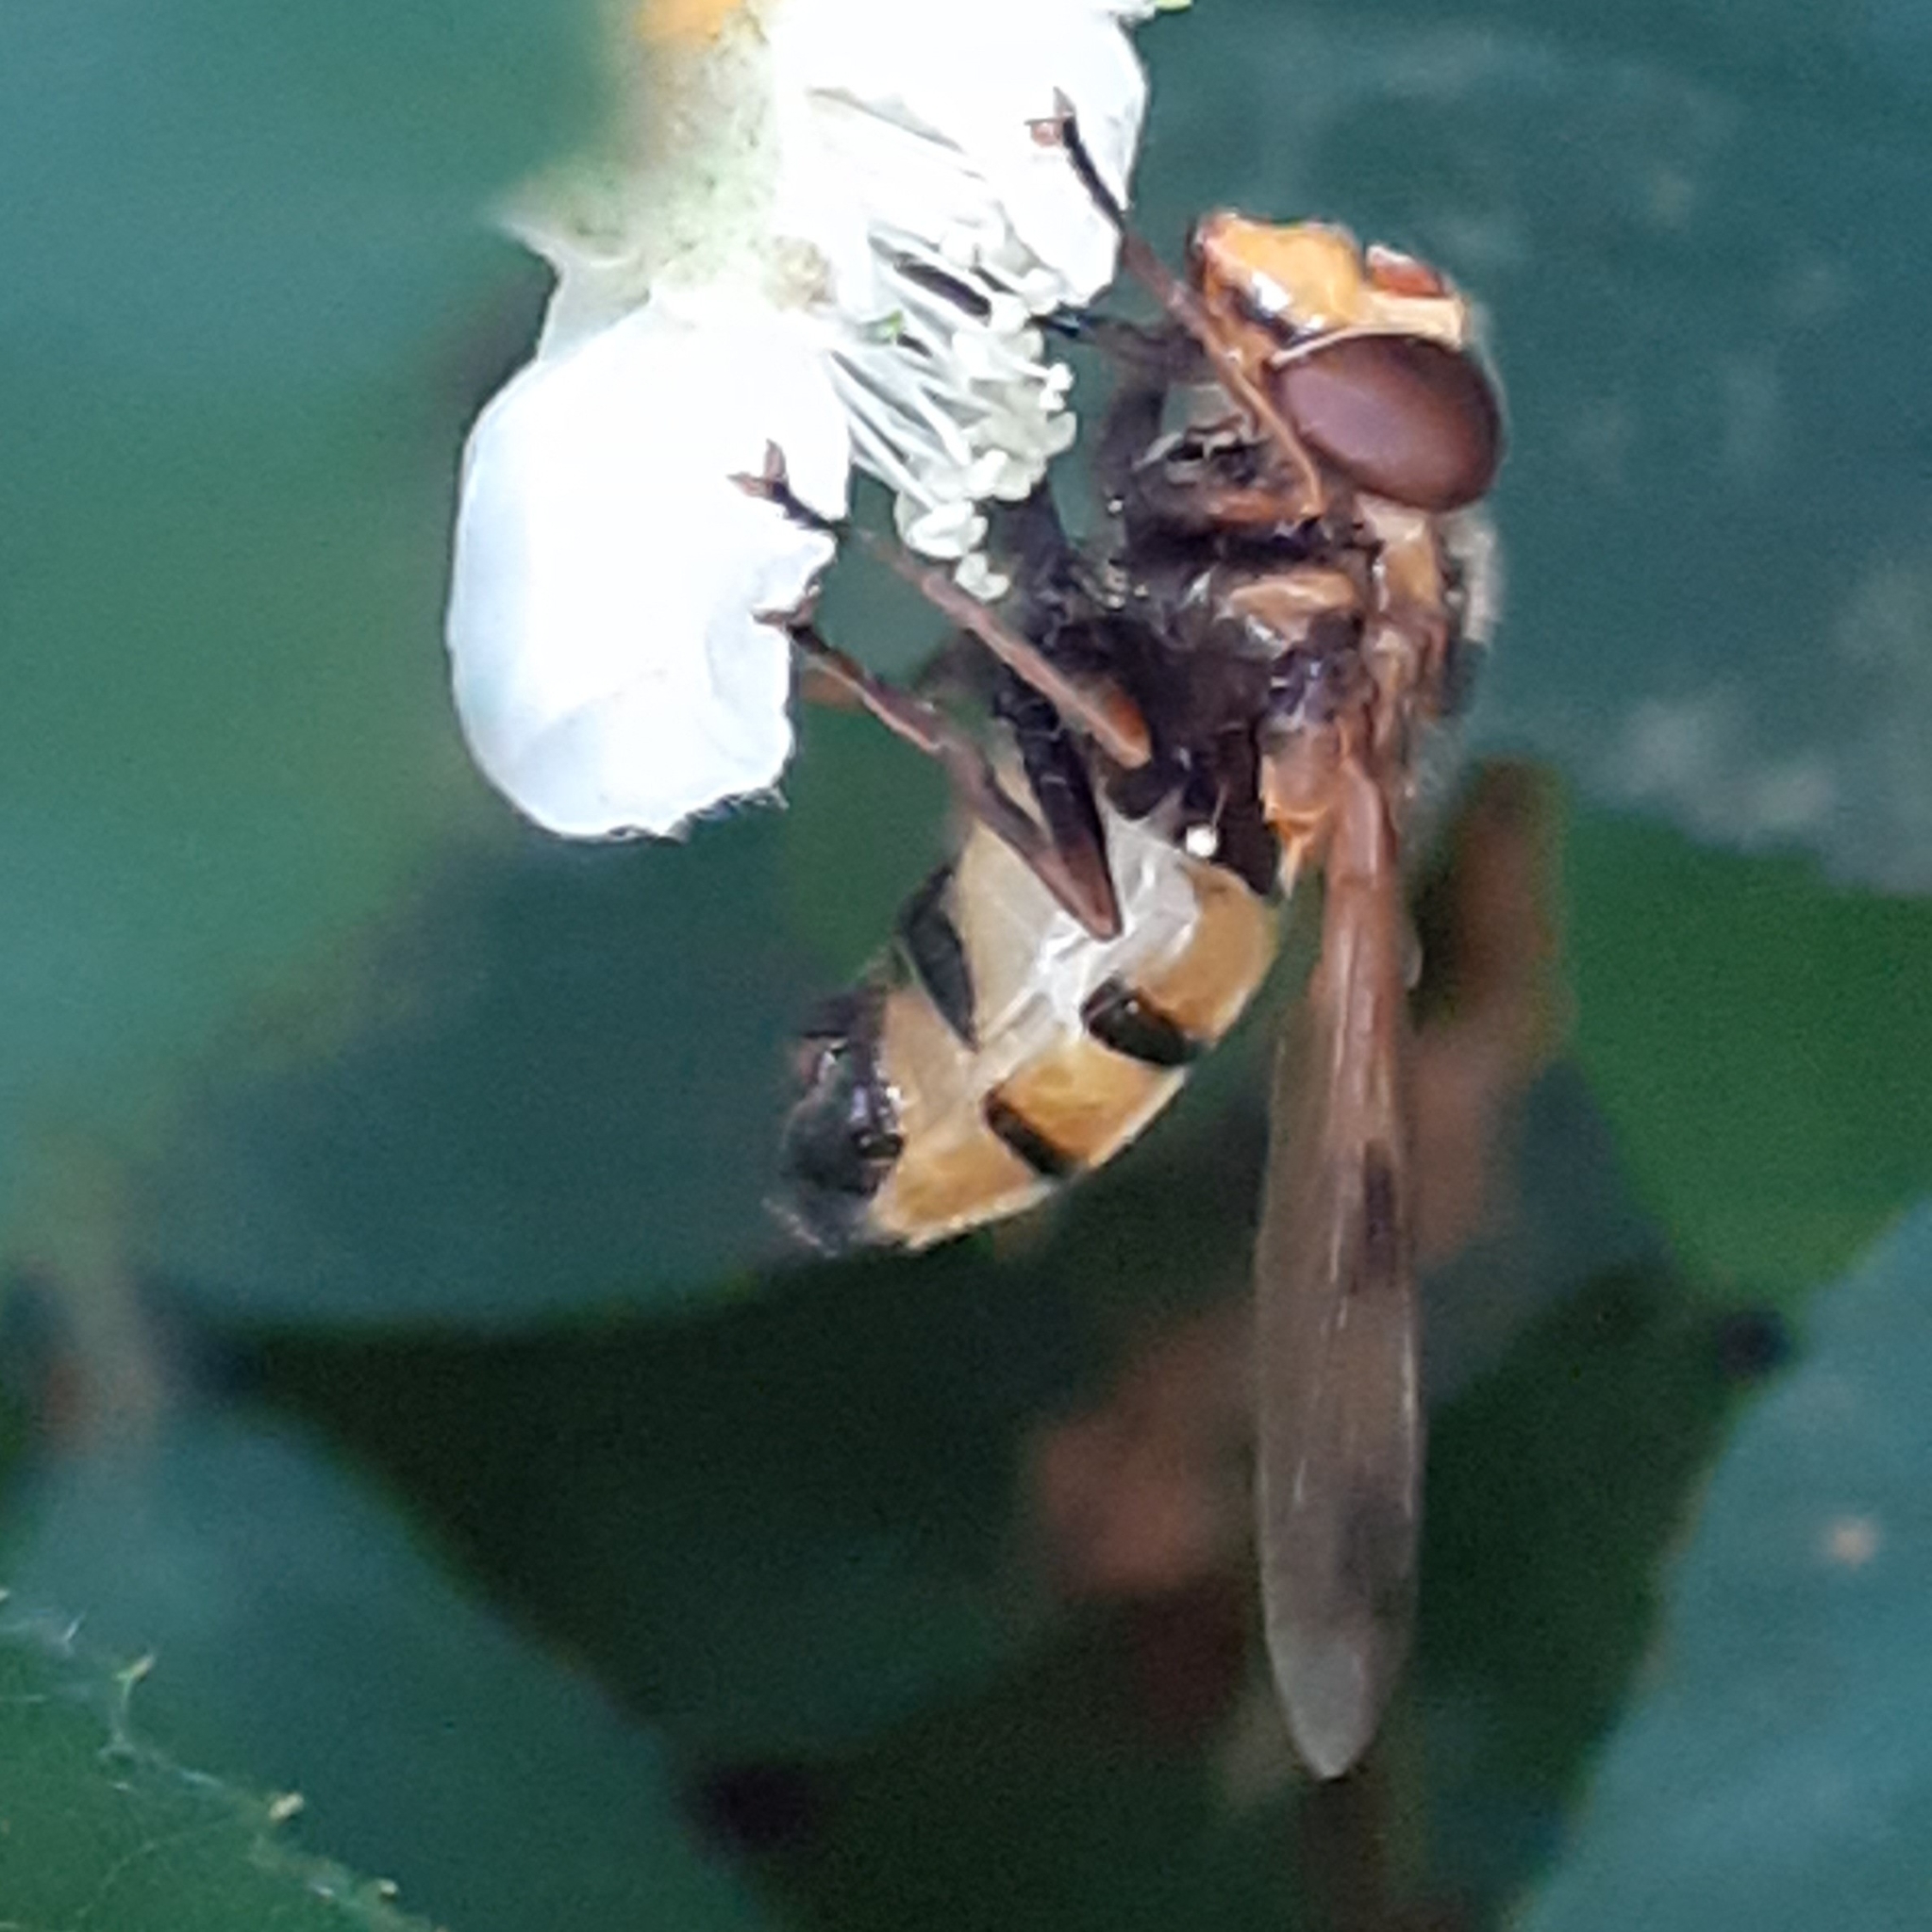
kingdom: Animalia
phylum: Arthropoda
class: Insecta
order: Diptera
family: Syrphidae
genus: Volucella
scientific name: Volucella inanis
